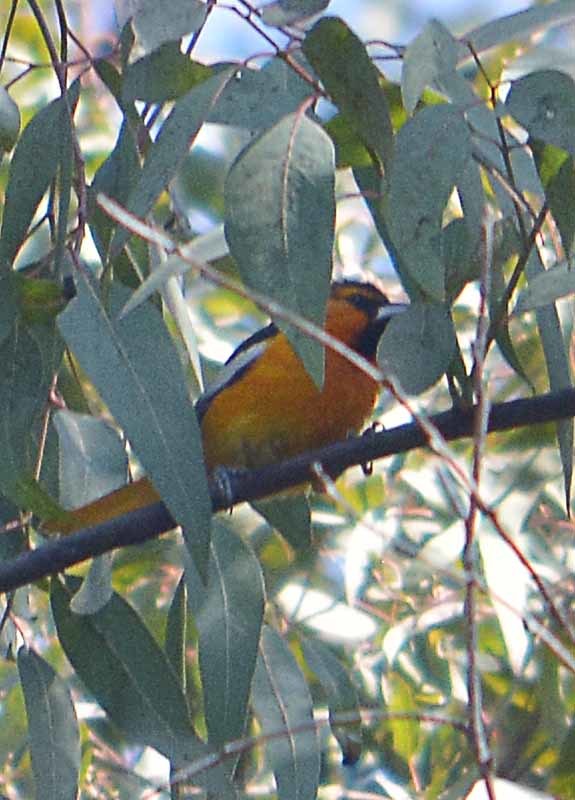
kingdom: Animalia
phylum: Chordata
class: Aves
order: Passeriformes
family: Icteridae
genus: Icterus
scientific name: Icterus bullockii
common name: Bullock's oriole
